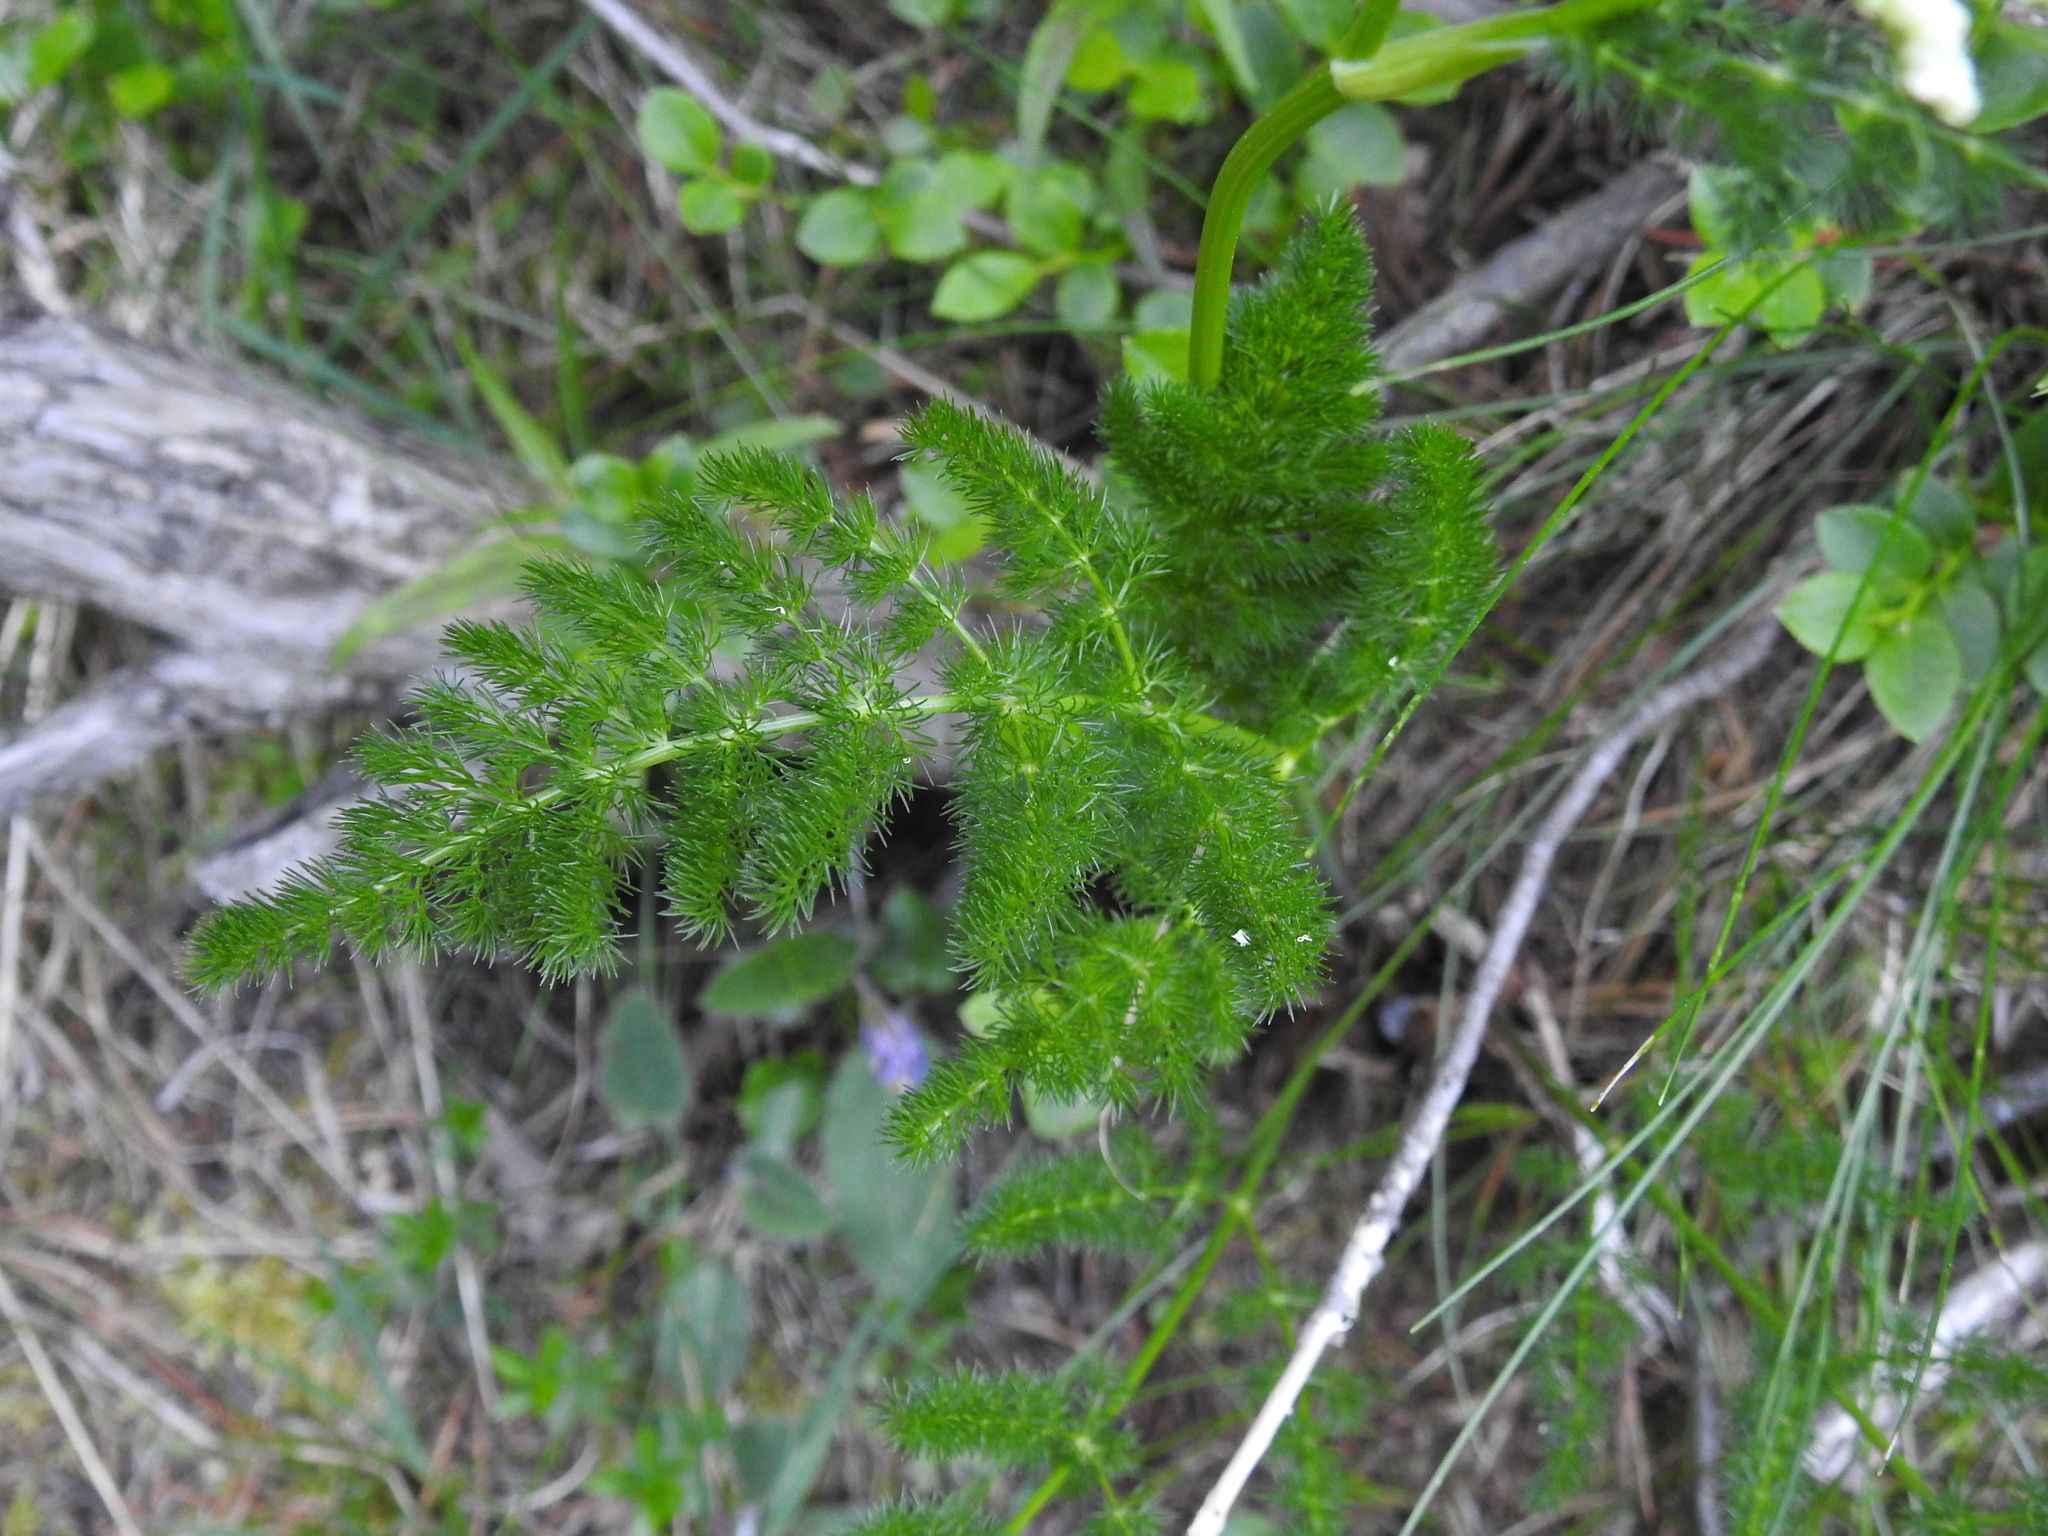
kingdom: Plantae
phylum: Tracheophyta
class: Magnoliopsida
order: Apiales
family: Apiaceae
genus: Meum
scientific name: Meum athamanticum
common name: Spignel
